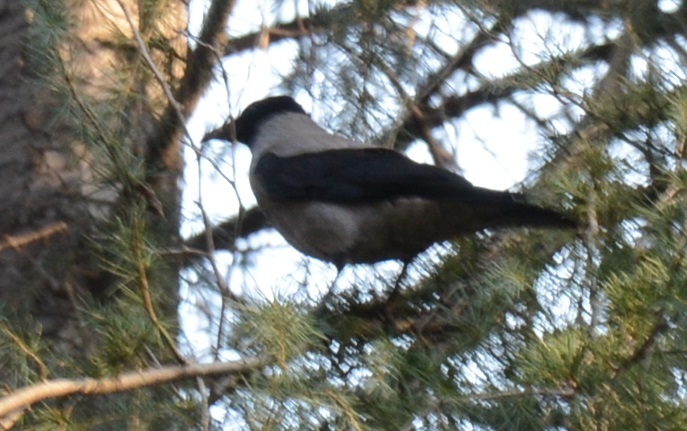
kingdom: Animalia
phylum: Chordata
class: Aves
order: Passeriformes
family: Corvidae
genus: Corvus
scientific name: Corvus cornix
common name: Hooded crow
